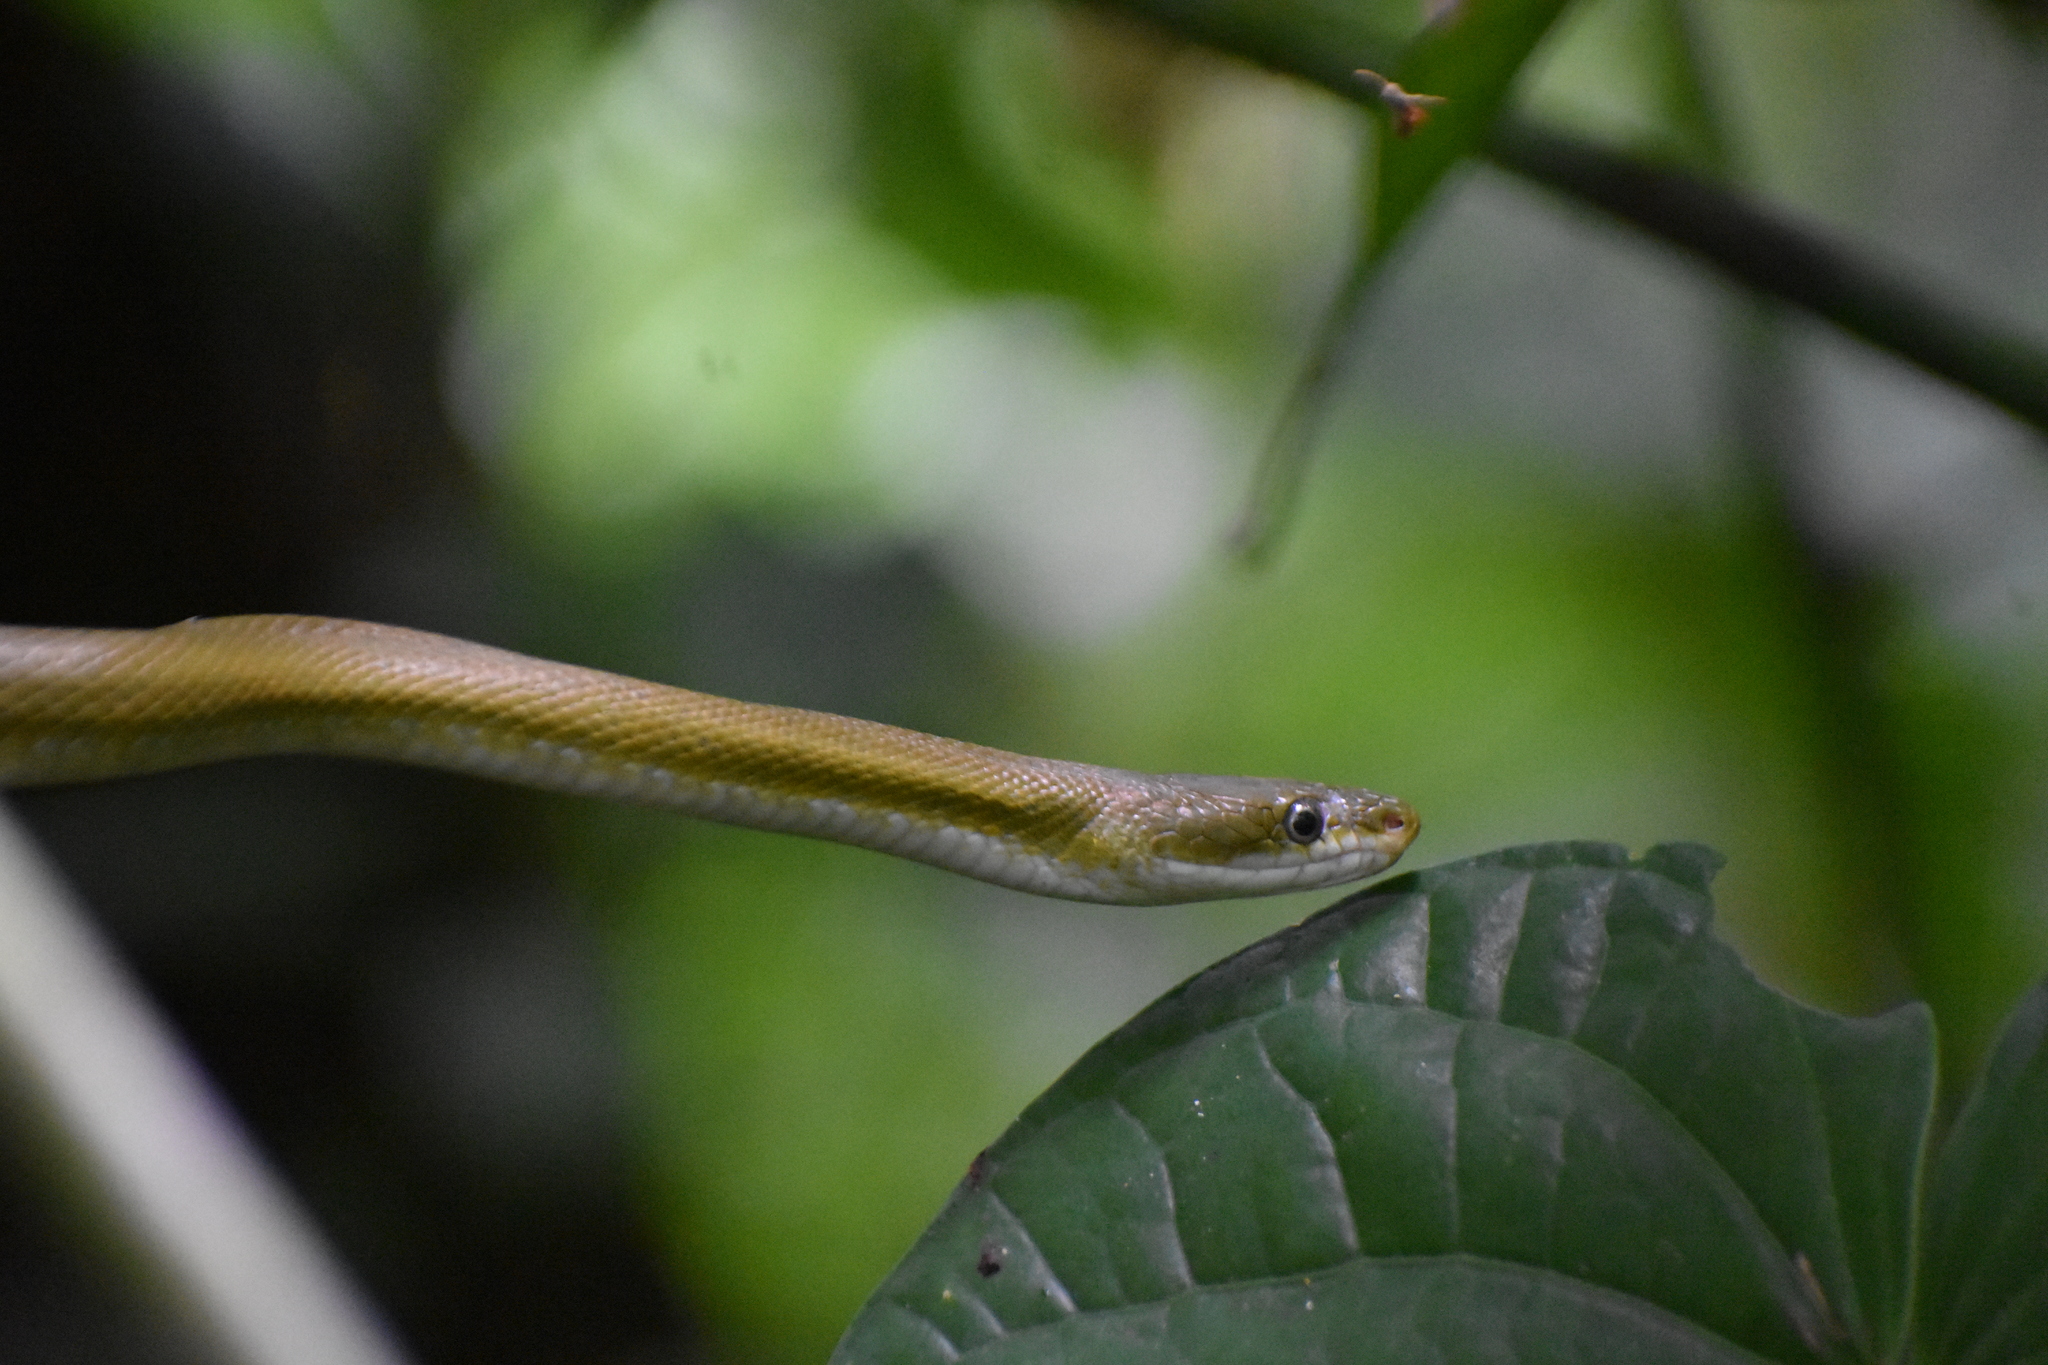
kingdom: Animalia
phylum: Chordata
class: Squamata
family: Colubridae
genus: Senticolis
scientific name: Senticolis triaspis
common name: Green rat snake
